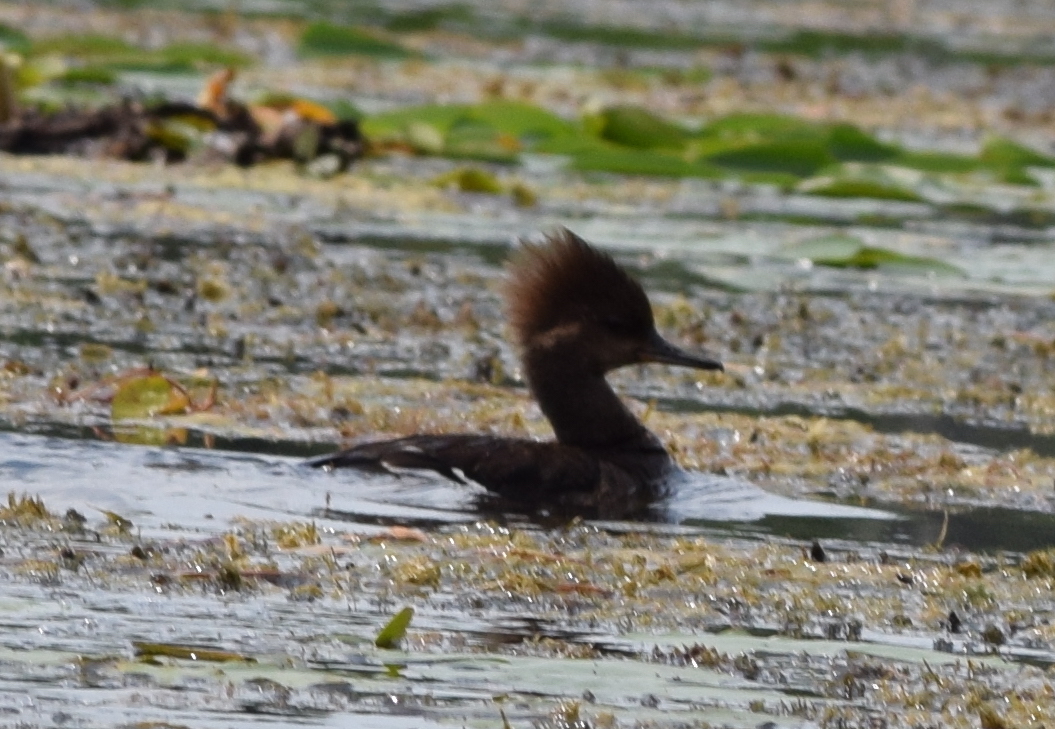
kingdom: Animalia
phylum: Chordata
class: Aves
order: Anseriformes
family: Anatidae
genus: Lophodytes
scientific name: Lophodytes cucullatus
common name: Hooded merganser
